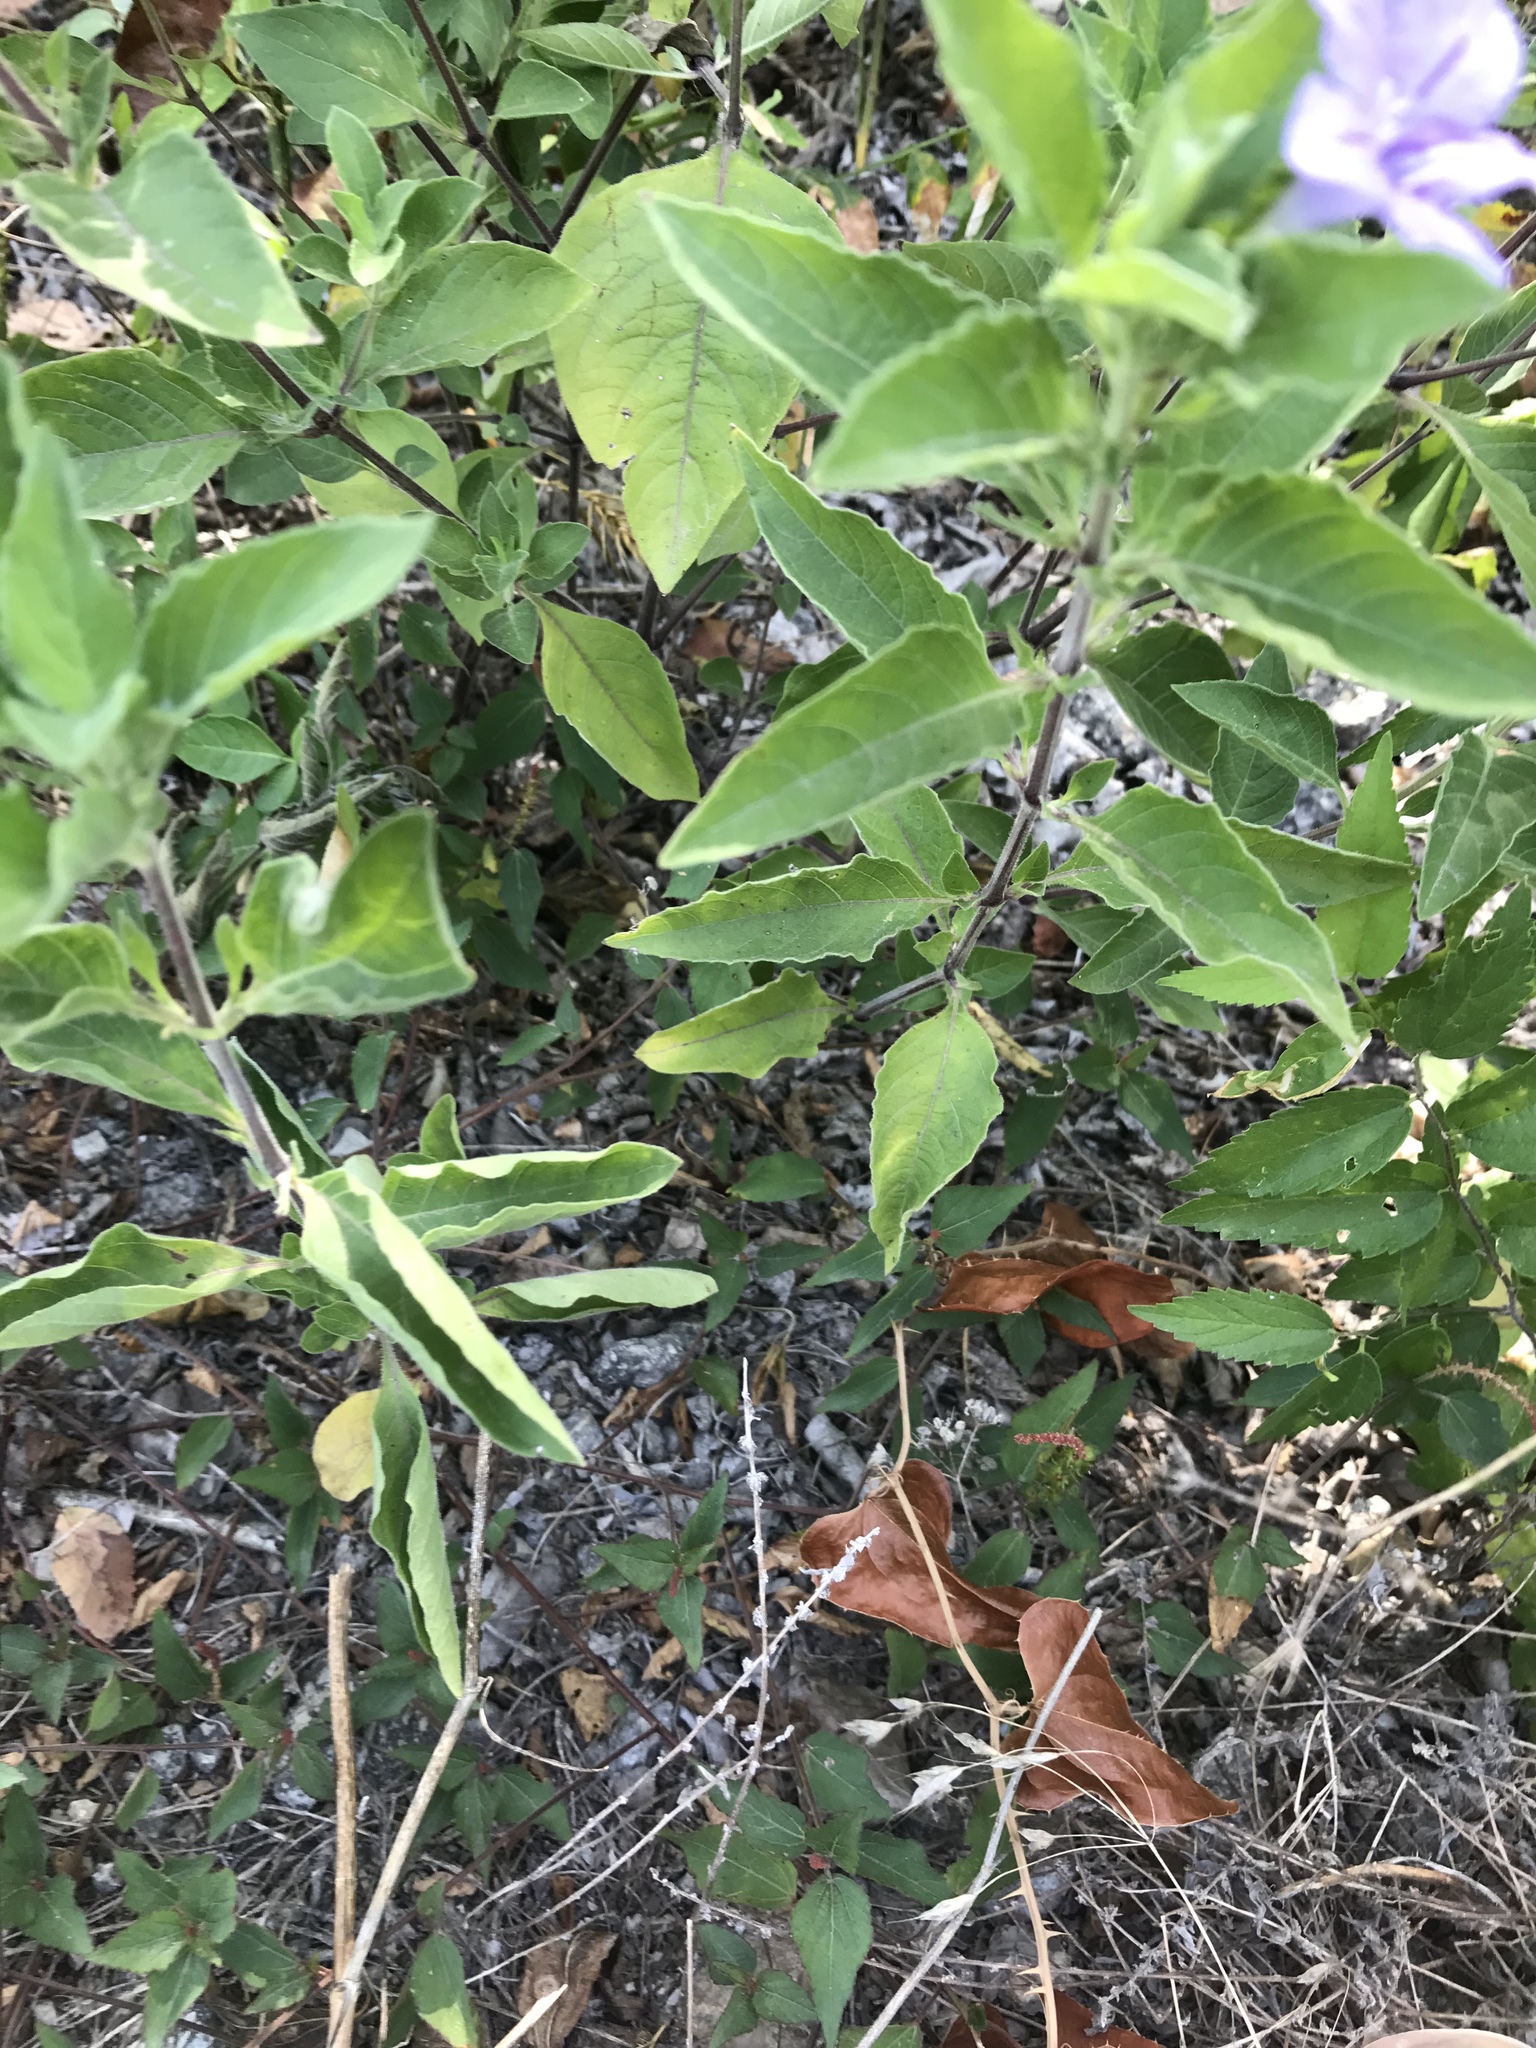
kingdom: Plantae
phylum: Tracheophyta
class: Magnoliopsida
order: Lamiales
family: Acanthaceae
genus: Ruellia
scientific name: Ruellia drummondiana
